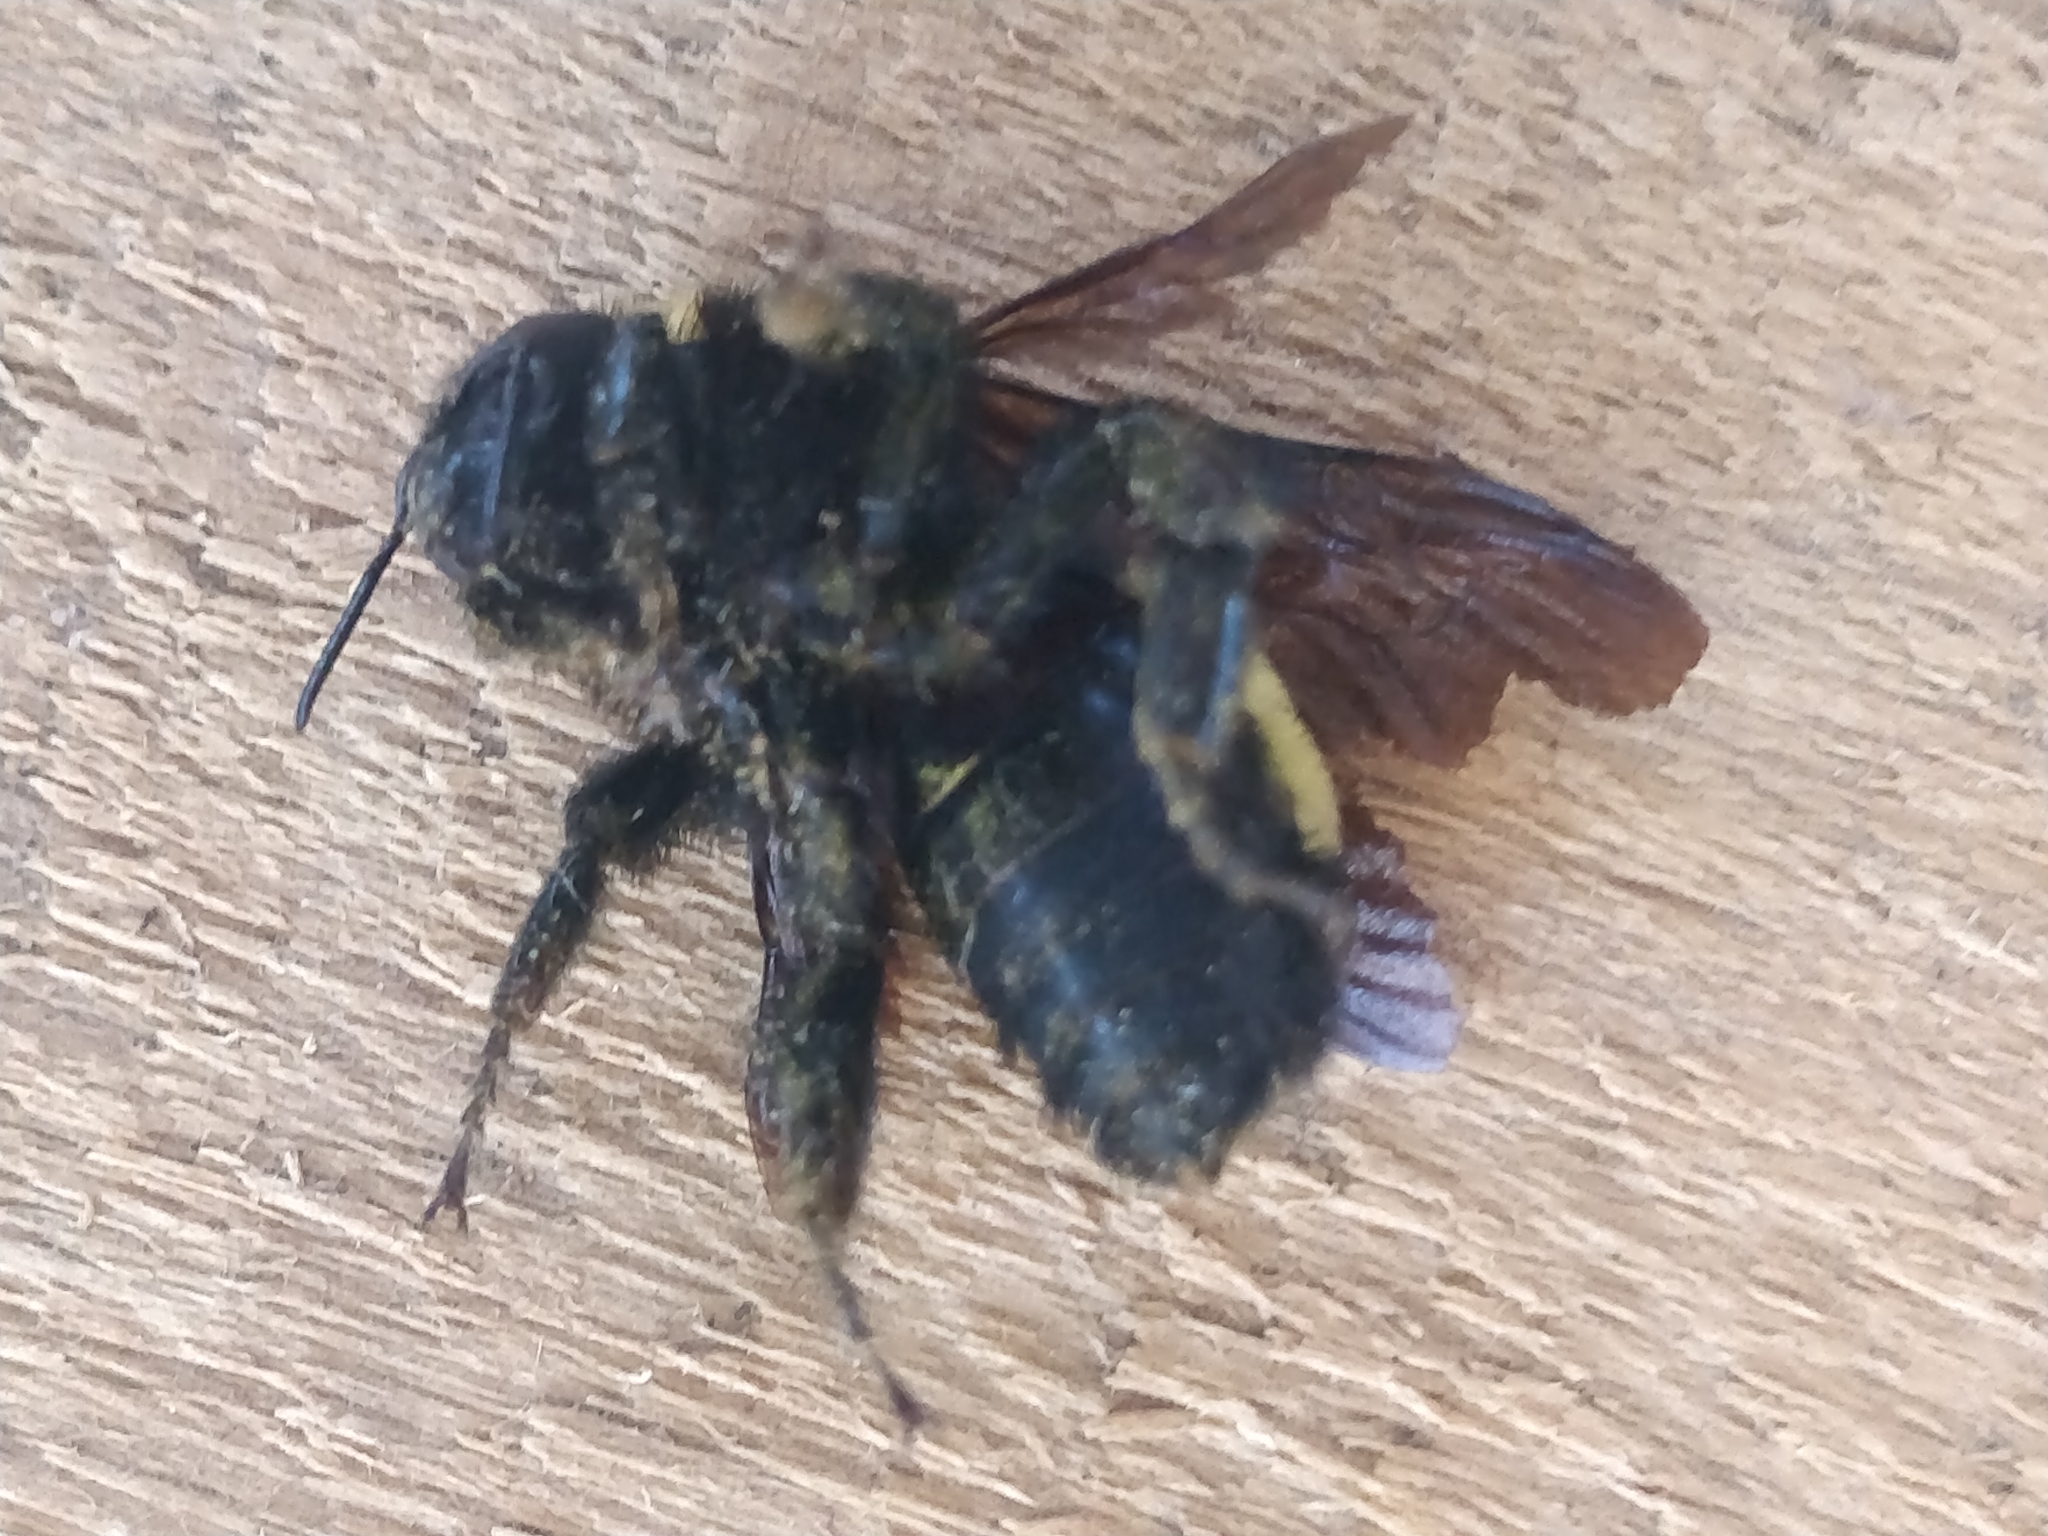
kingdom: Animalia
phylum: Arthropoda
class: Insecta
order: Hymenoptera
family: Apidae
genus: Bombus
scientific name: Bombus pensylvanicus
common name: Bumble bee
